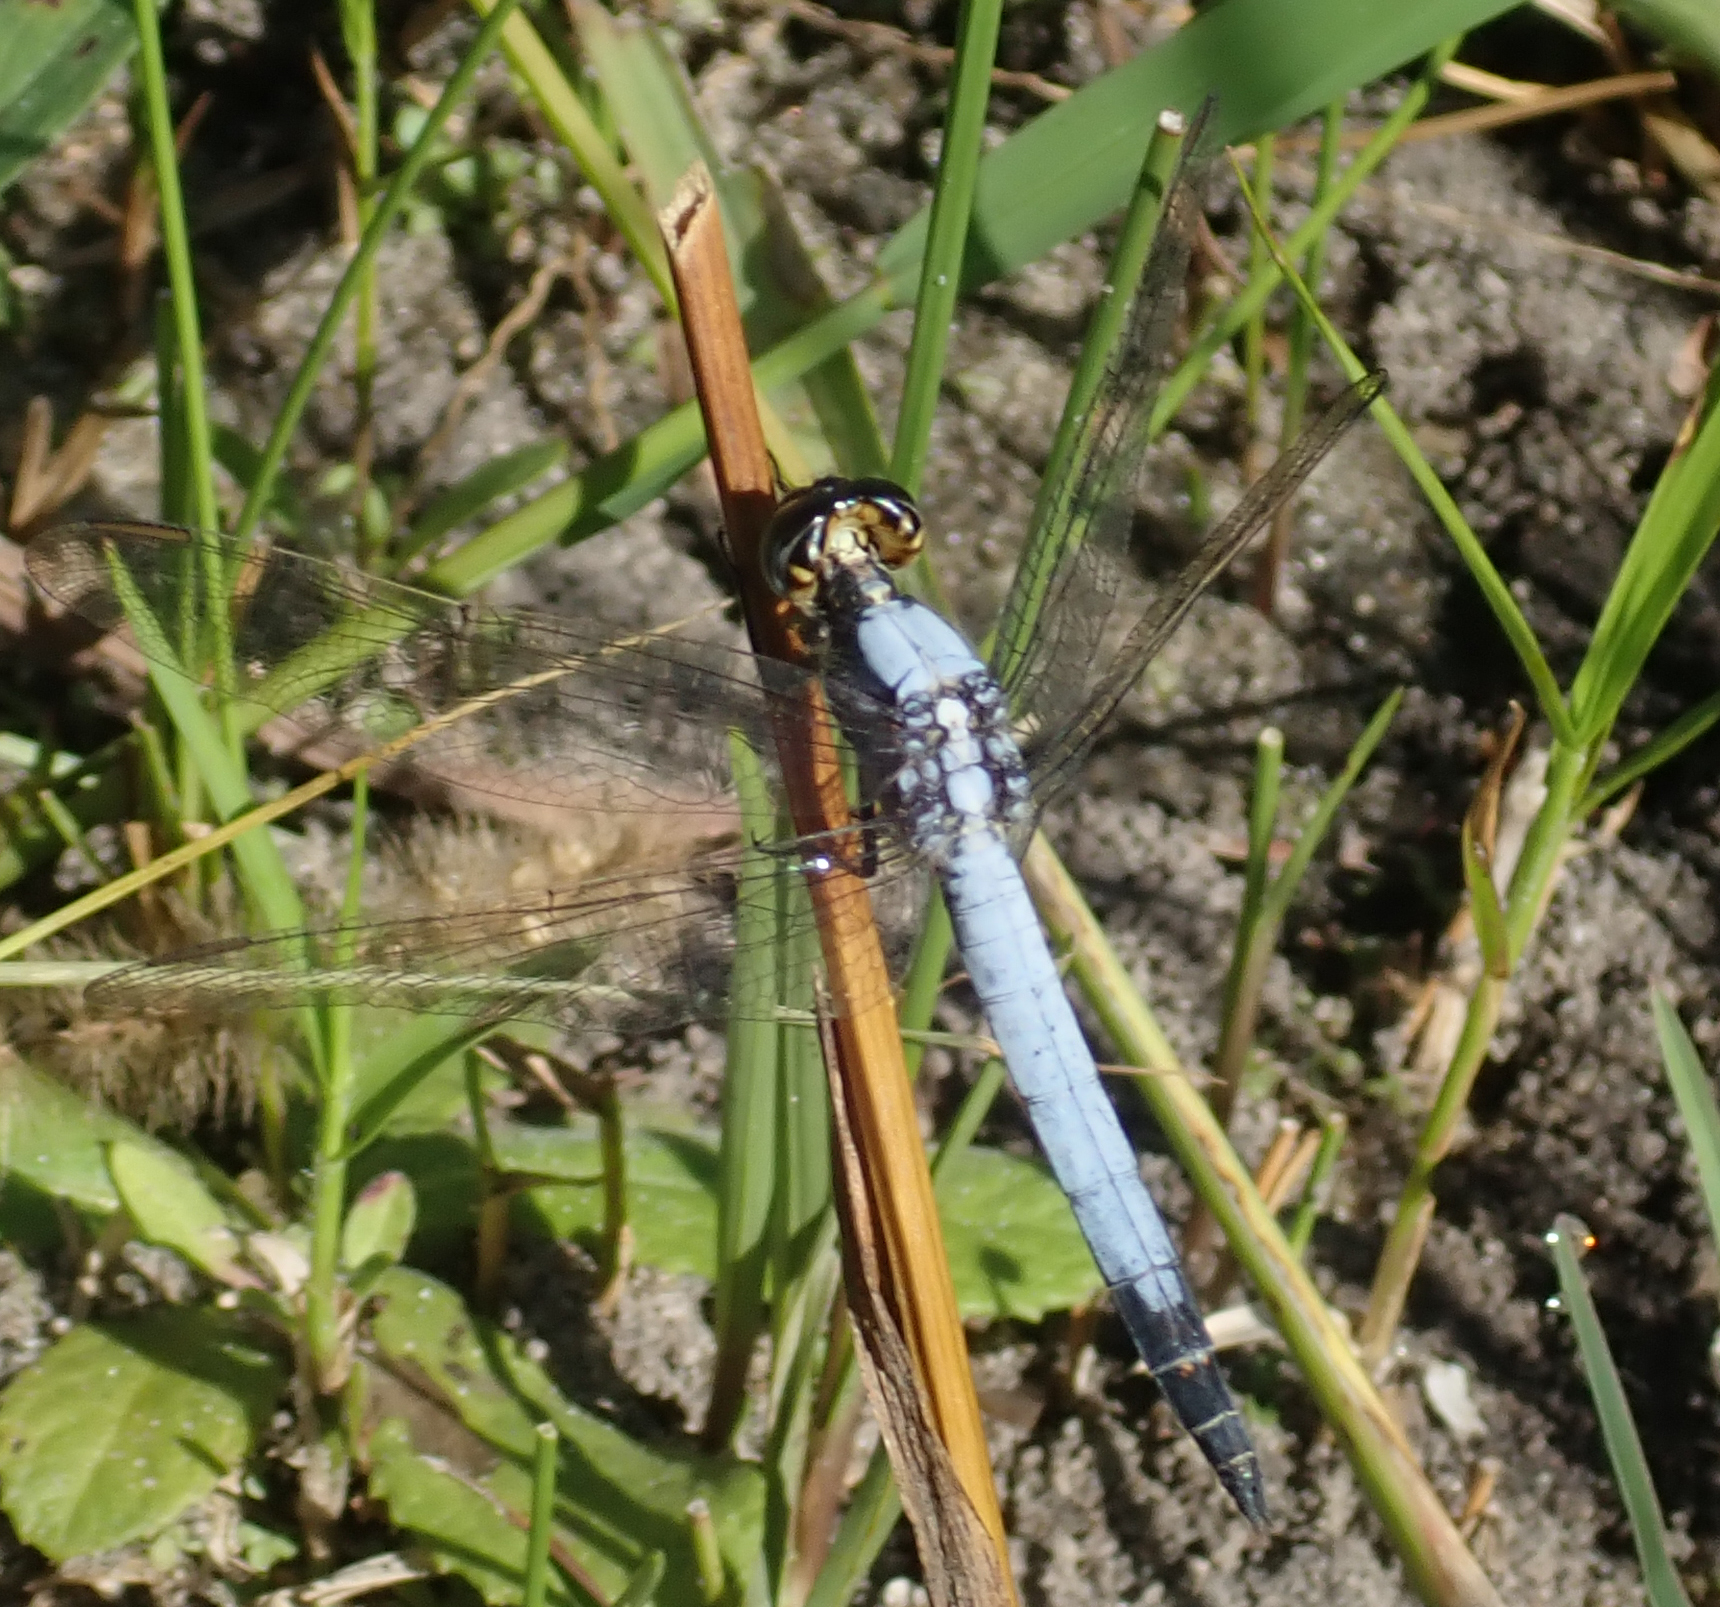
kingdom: Animalia
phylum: Arthropoda
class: Insecta
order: Odonata
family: Libellulidae
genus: Nesciothemis
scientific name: Nesciothemis farinosa
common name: Eastern blacktail
